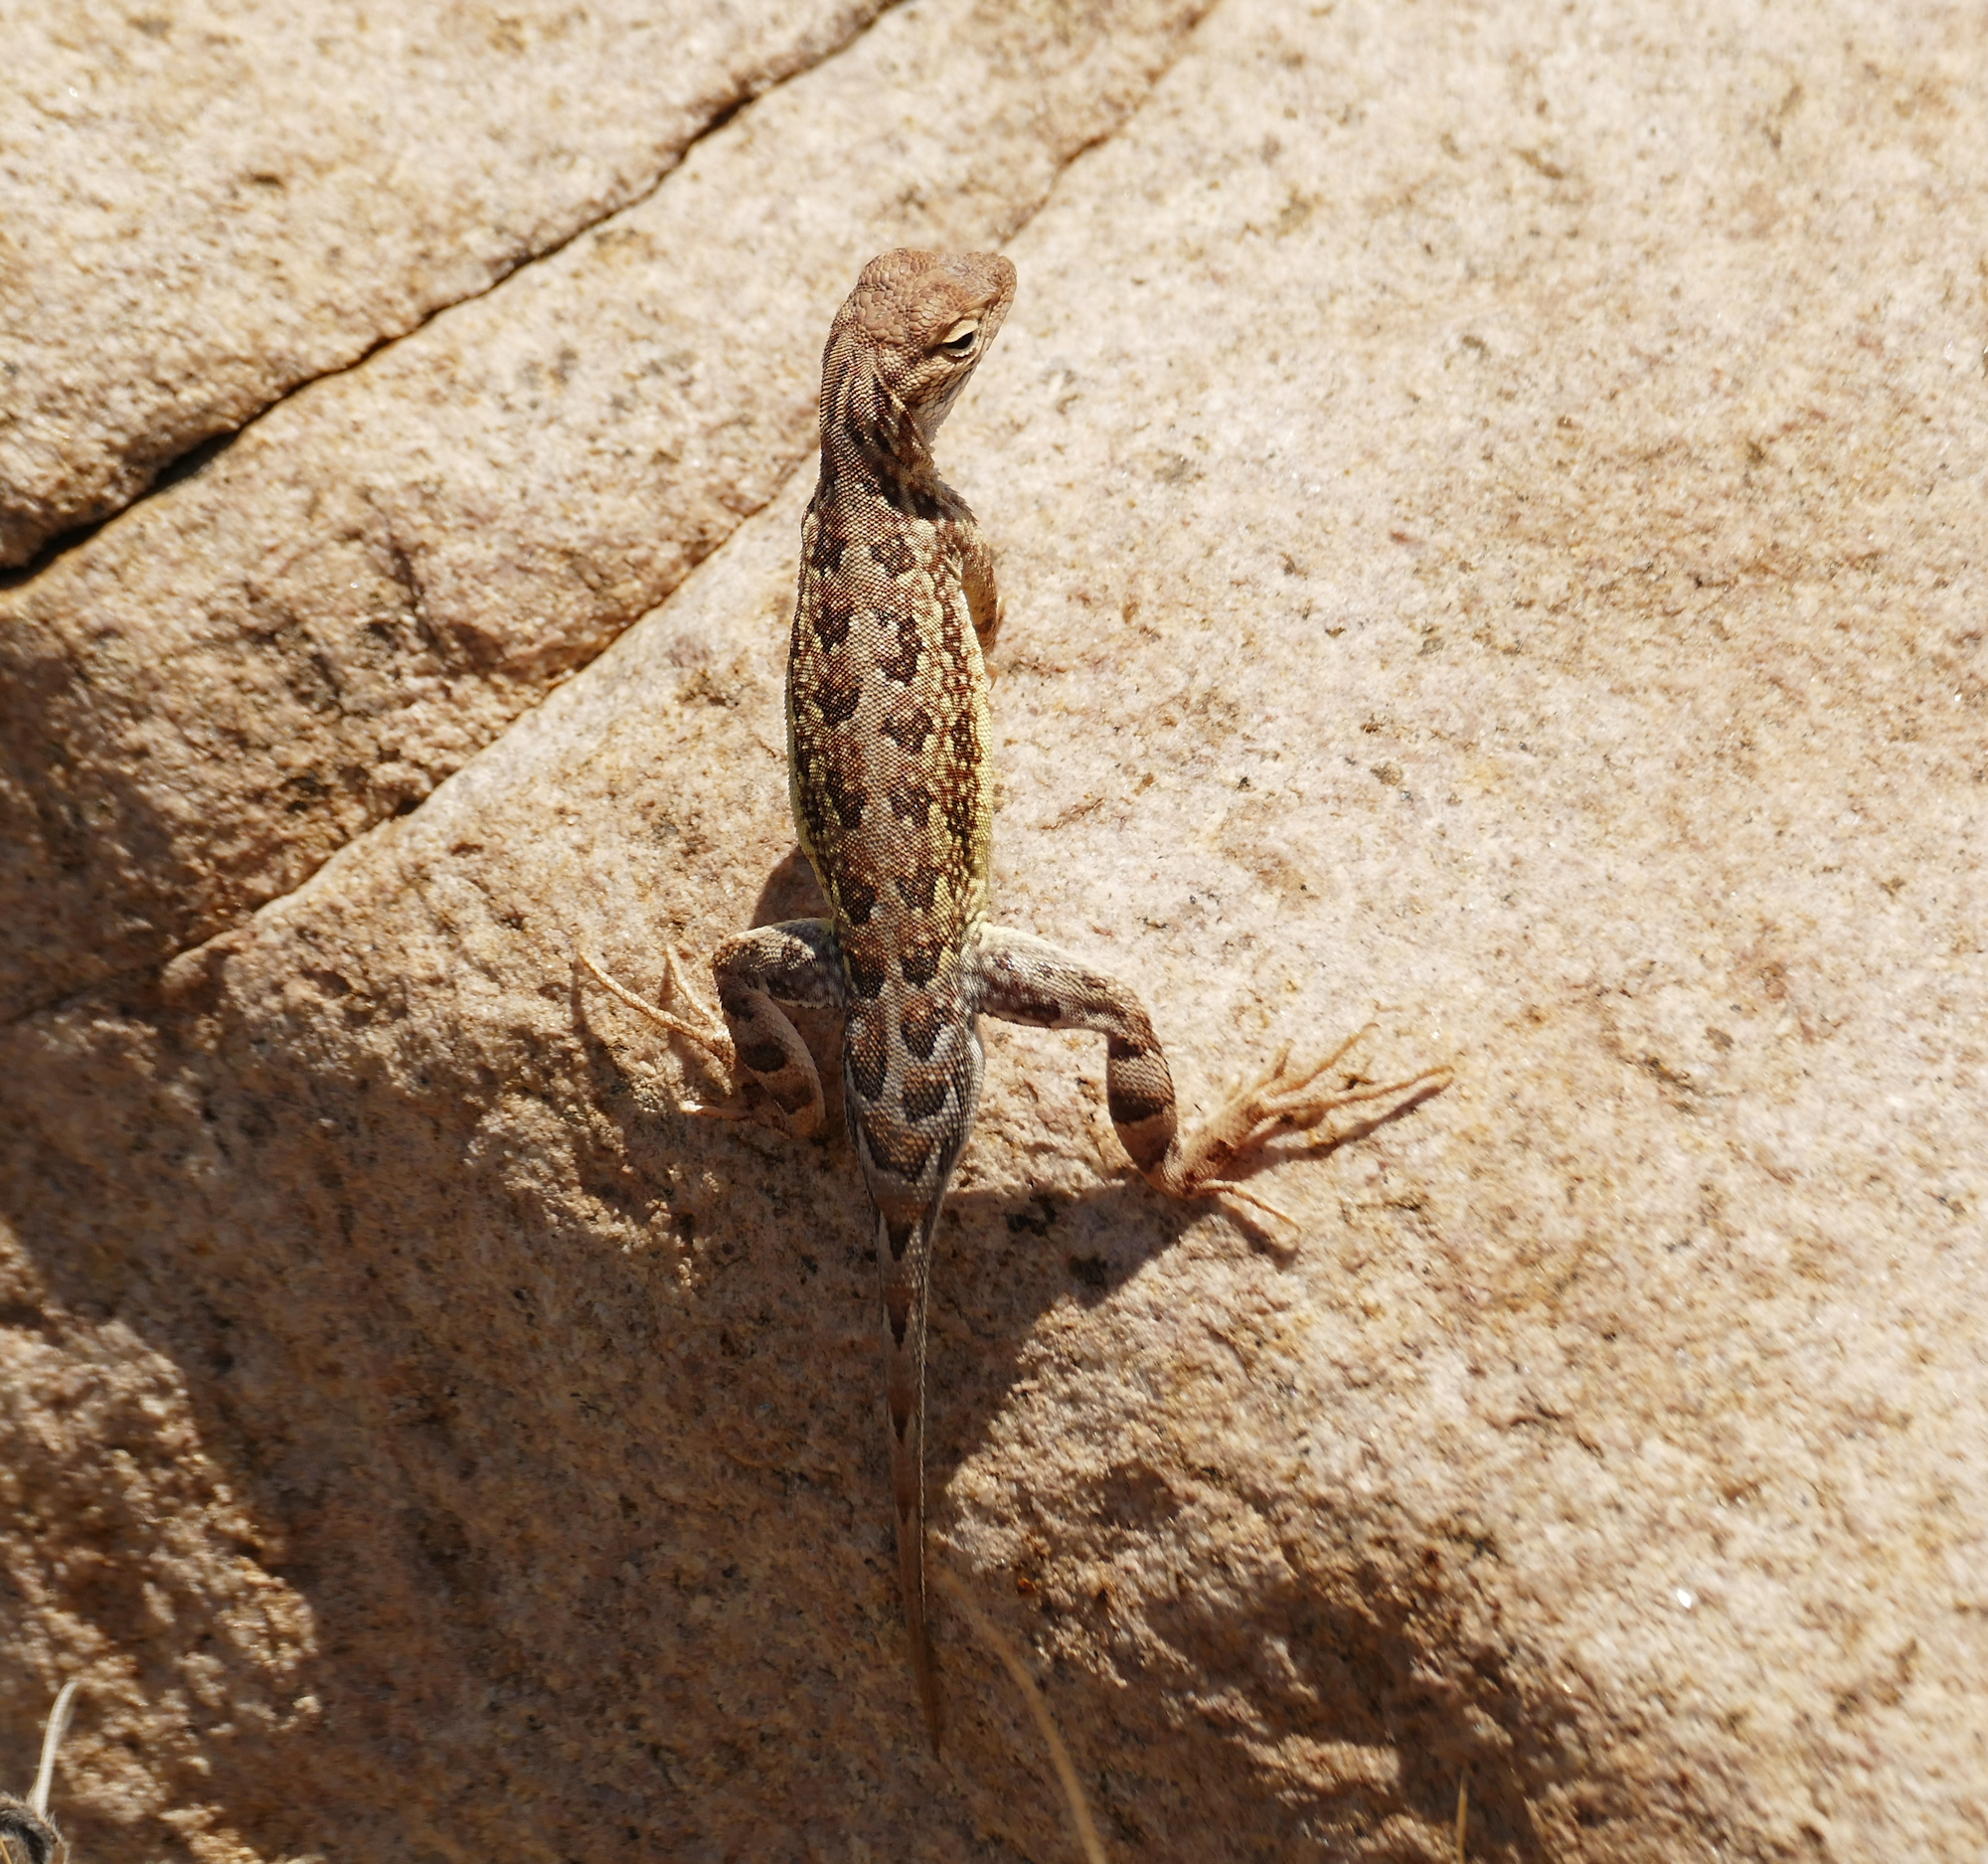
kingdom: Animalia
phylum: Chordata
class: Squamata
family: Phrynosomatidae
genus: Holbrookia
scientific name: Holbrookia elegans
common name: Elegant earless lizard
